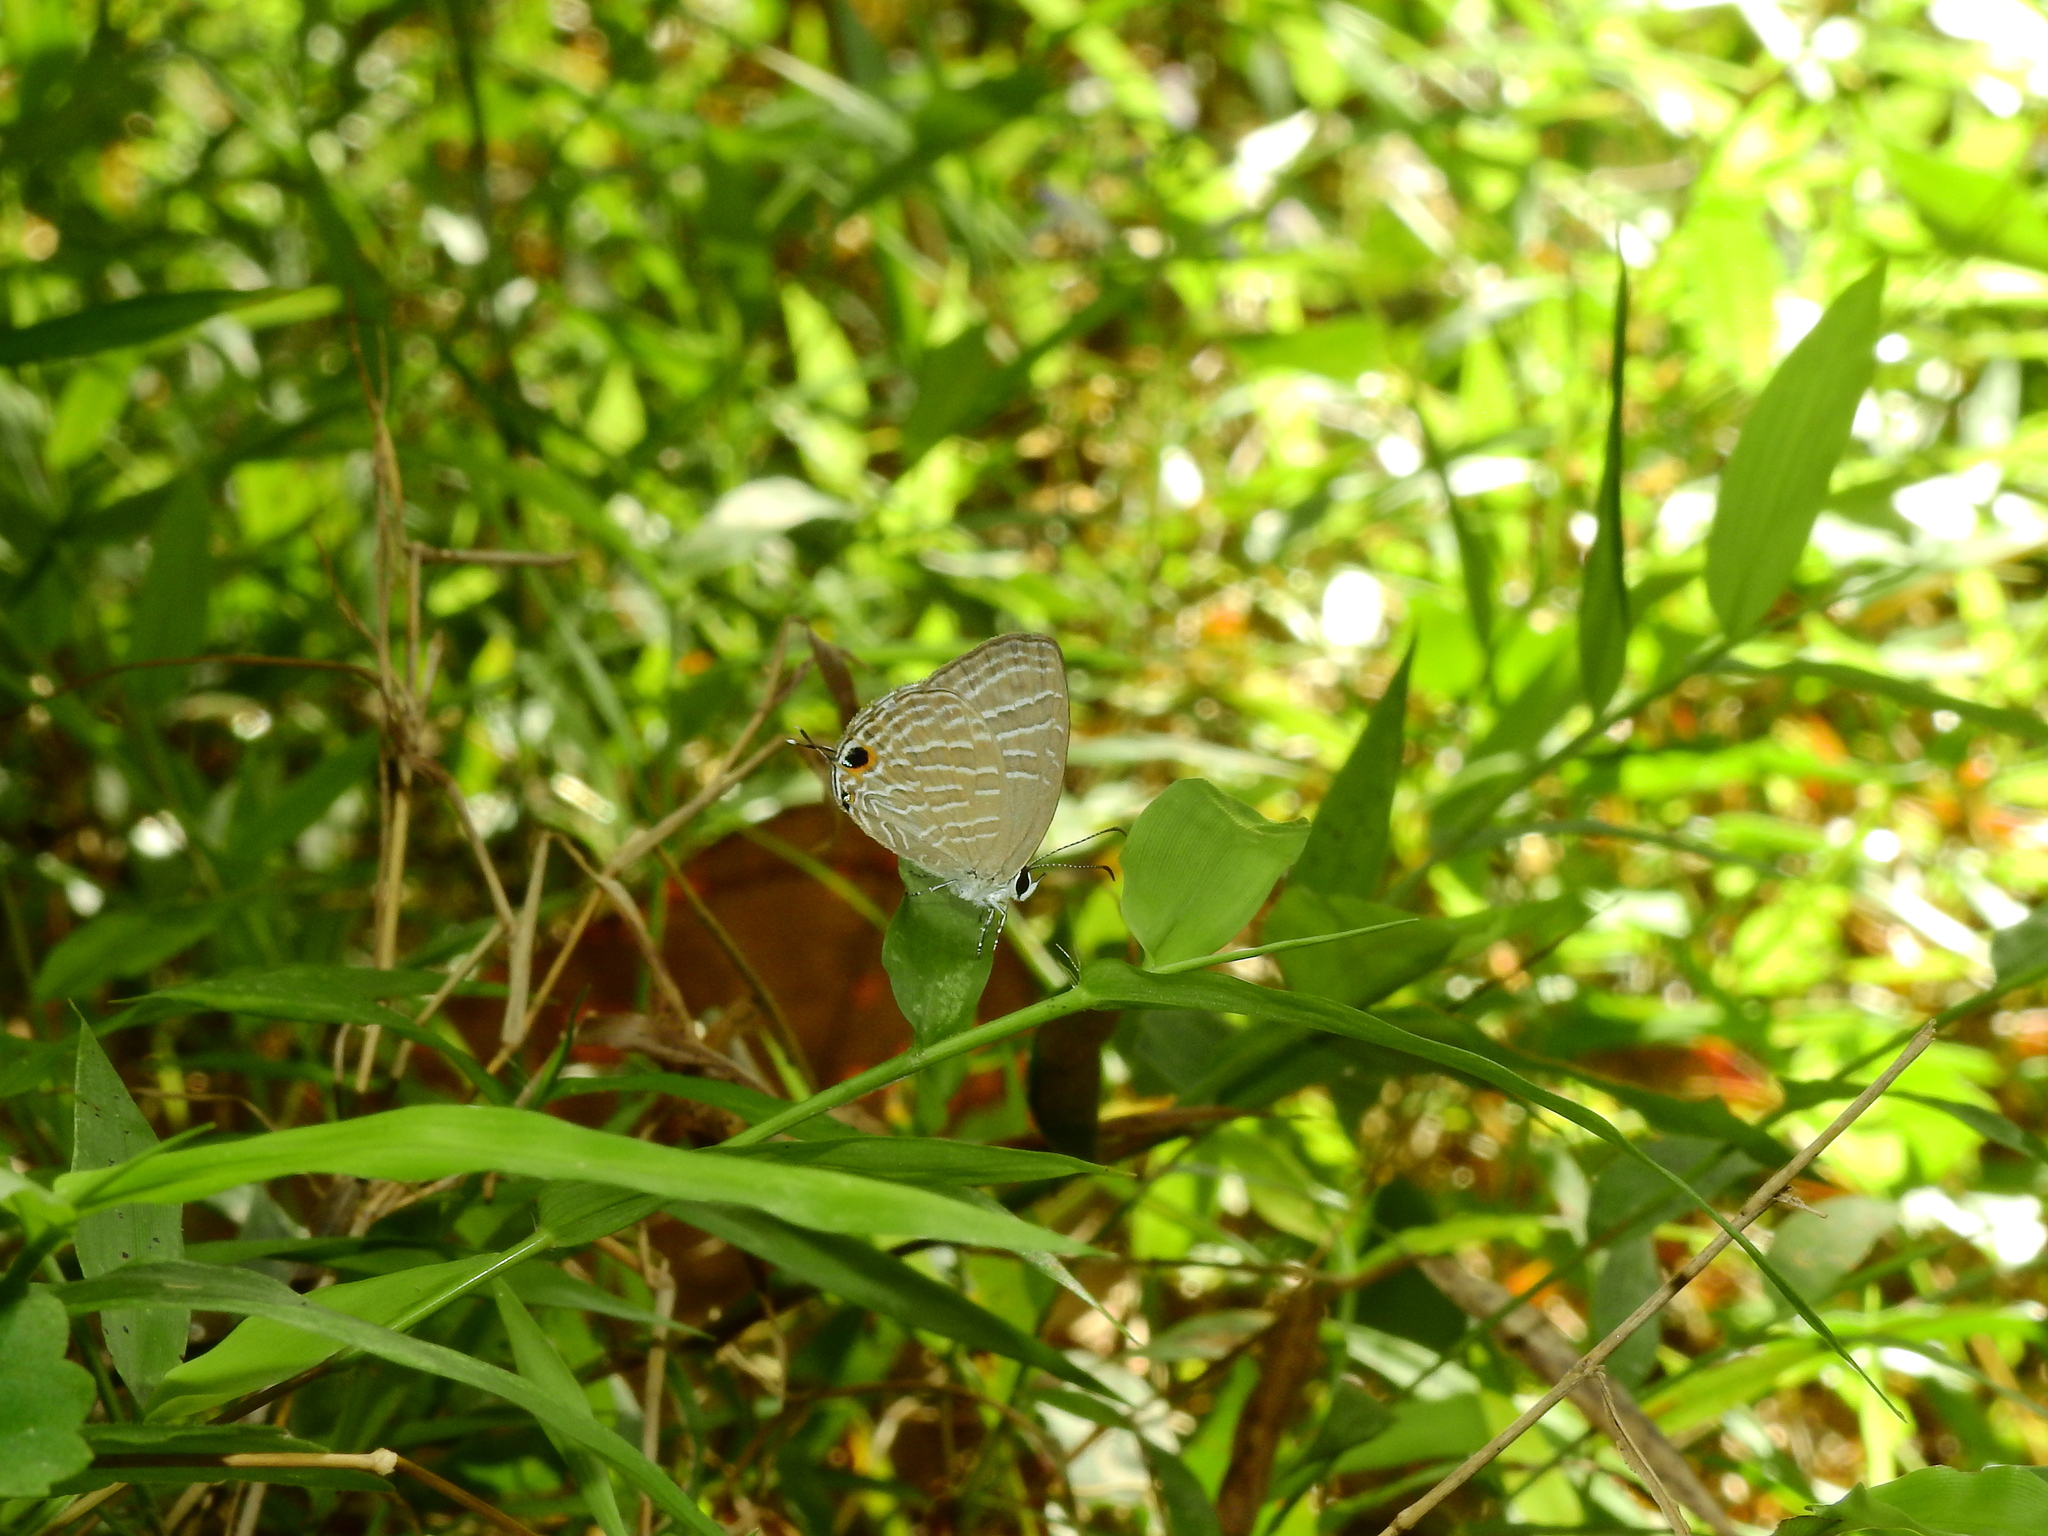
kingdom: Animalia
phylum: Arthropoda
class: Insecta
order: Lepidoptera
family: Lycaenidae
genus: Jamides
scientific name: Jamides celeno
